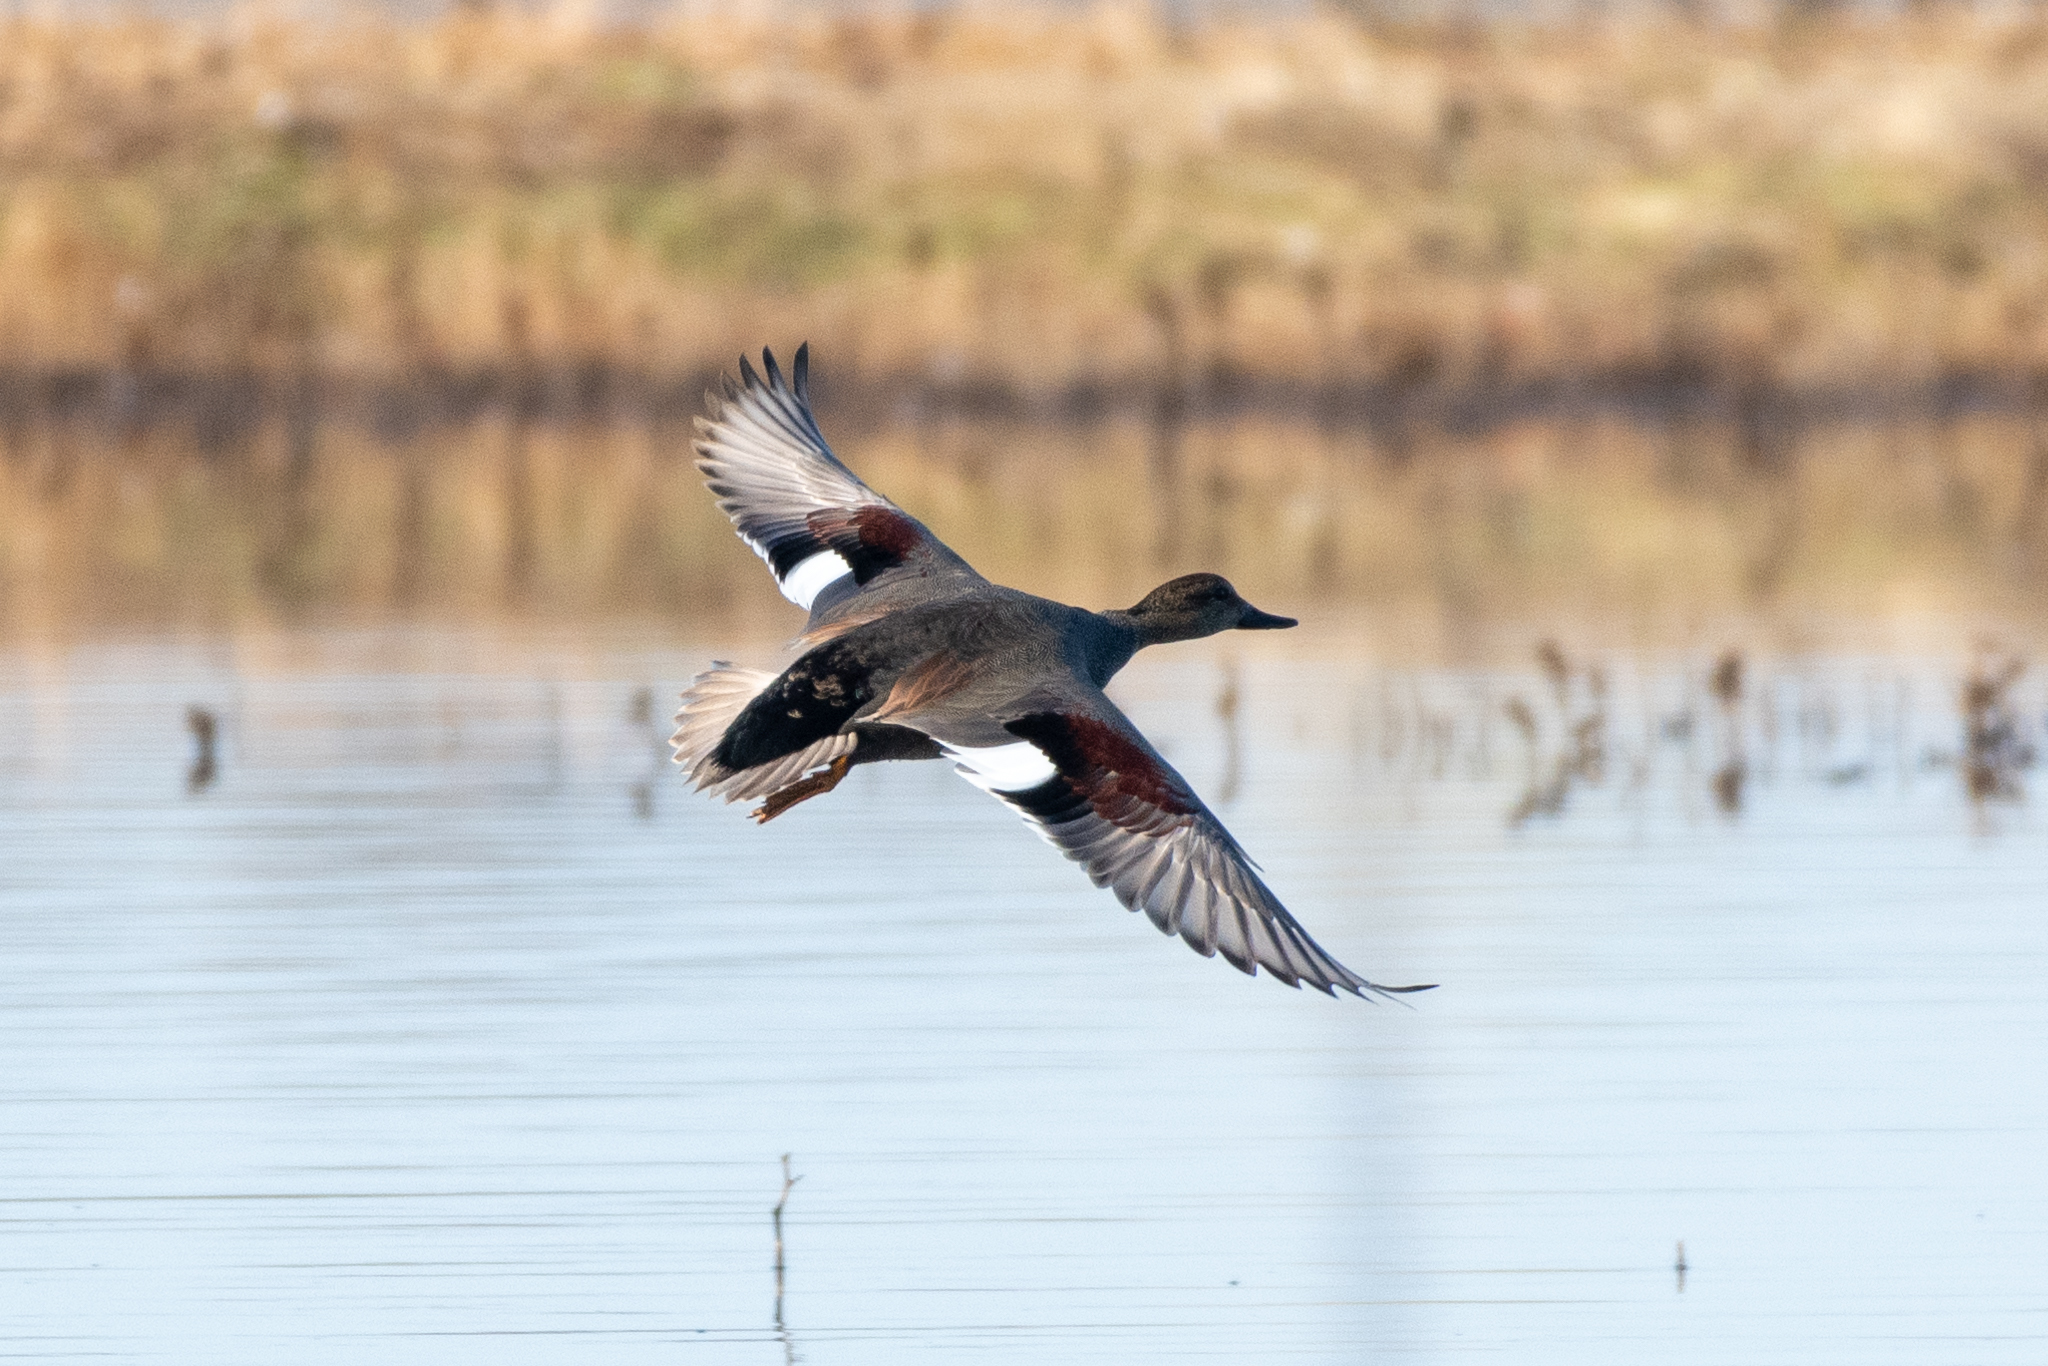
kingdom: Animalia
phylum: Chordata
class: Aves
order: Anseriformes
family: Anatidae
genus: Mareca
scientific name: Mareca strepera
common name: Gadwall
